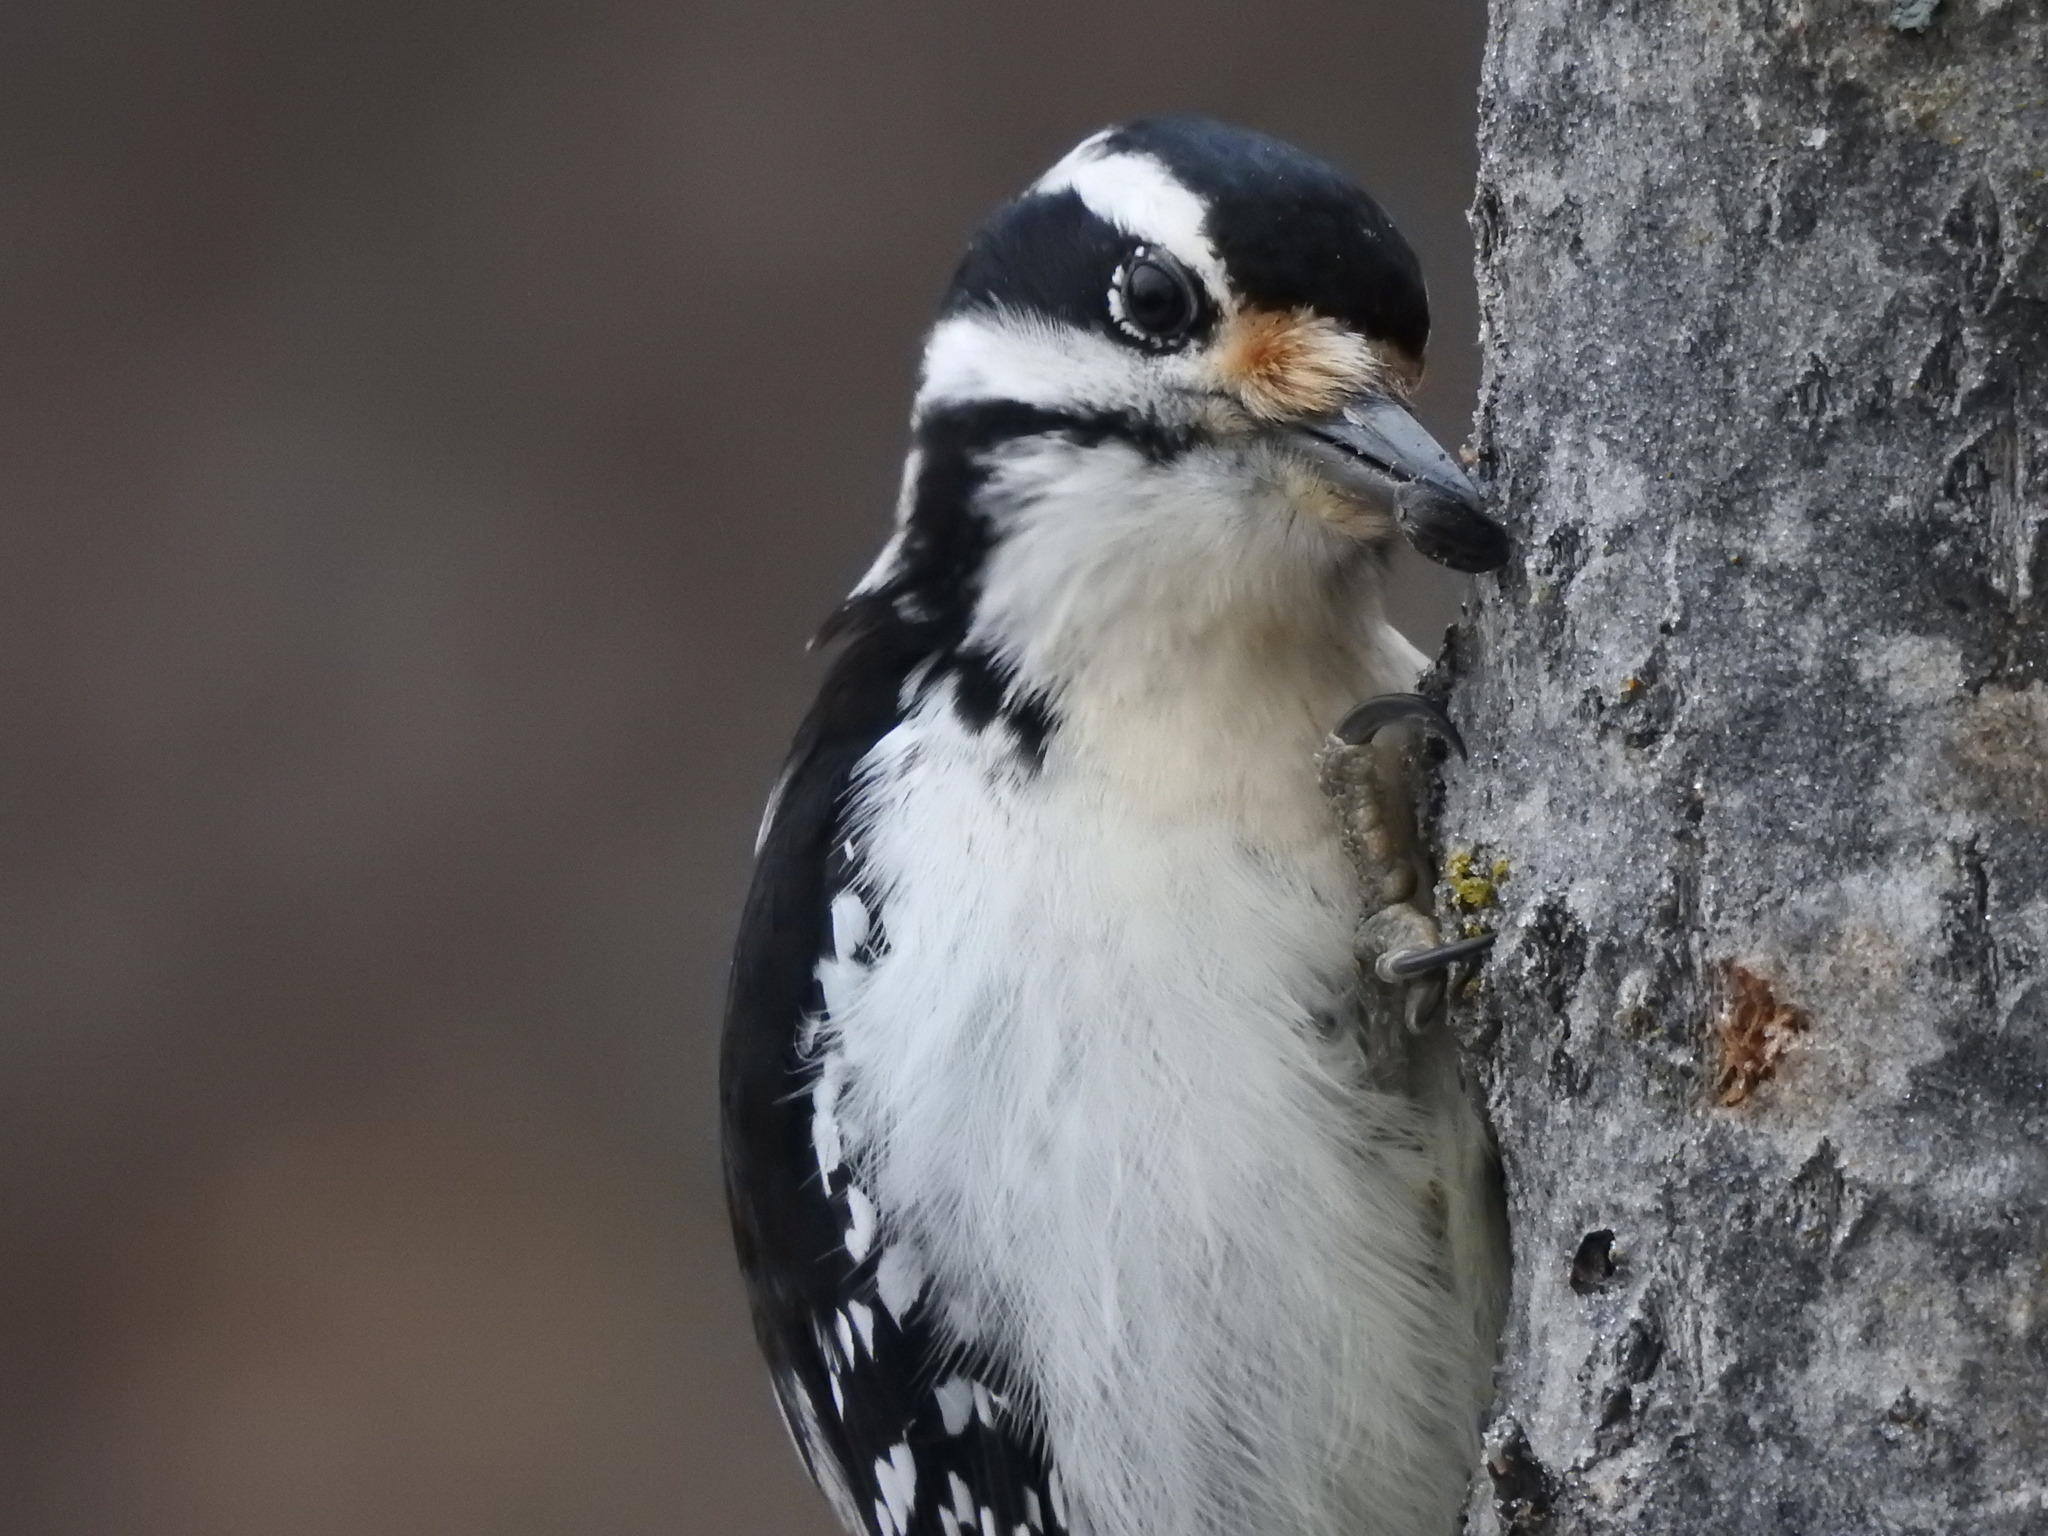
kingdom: Animalia
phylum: Chordata
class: Aves
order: Piciformes
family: Picidae
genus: Leuconotopicus
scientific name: Leuconotopicus villosus
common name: Hairy woodpecker
